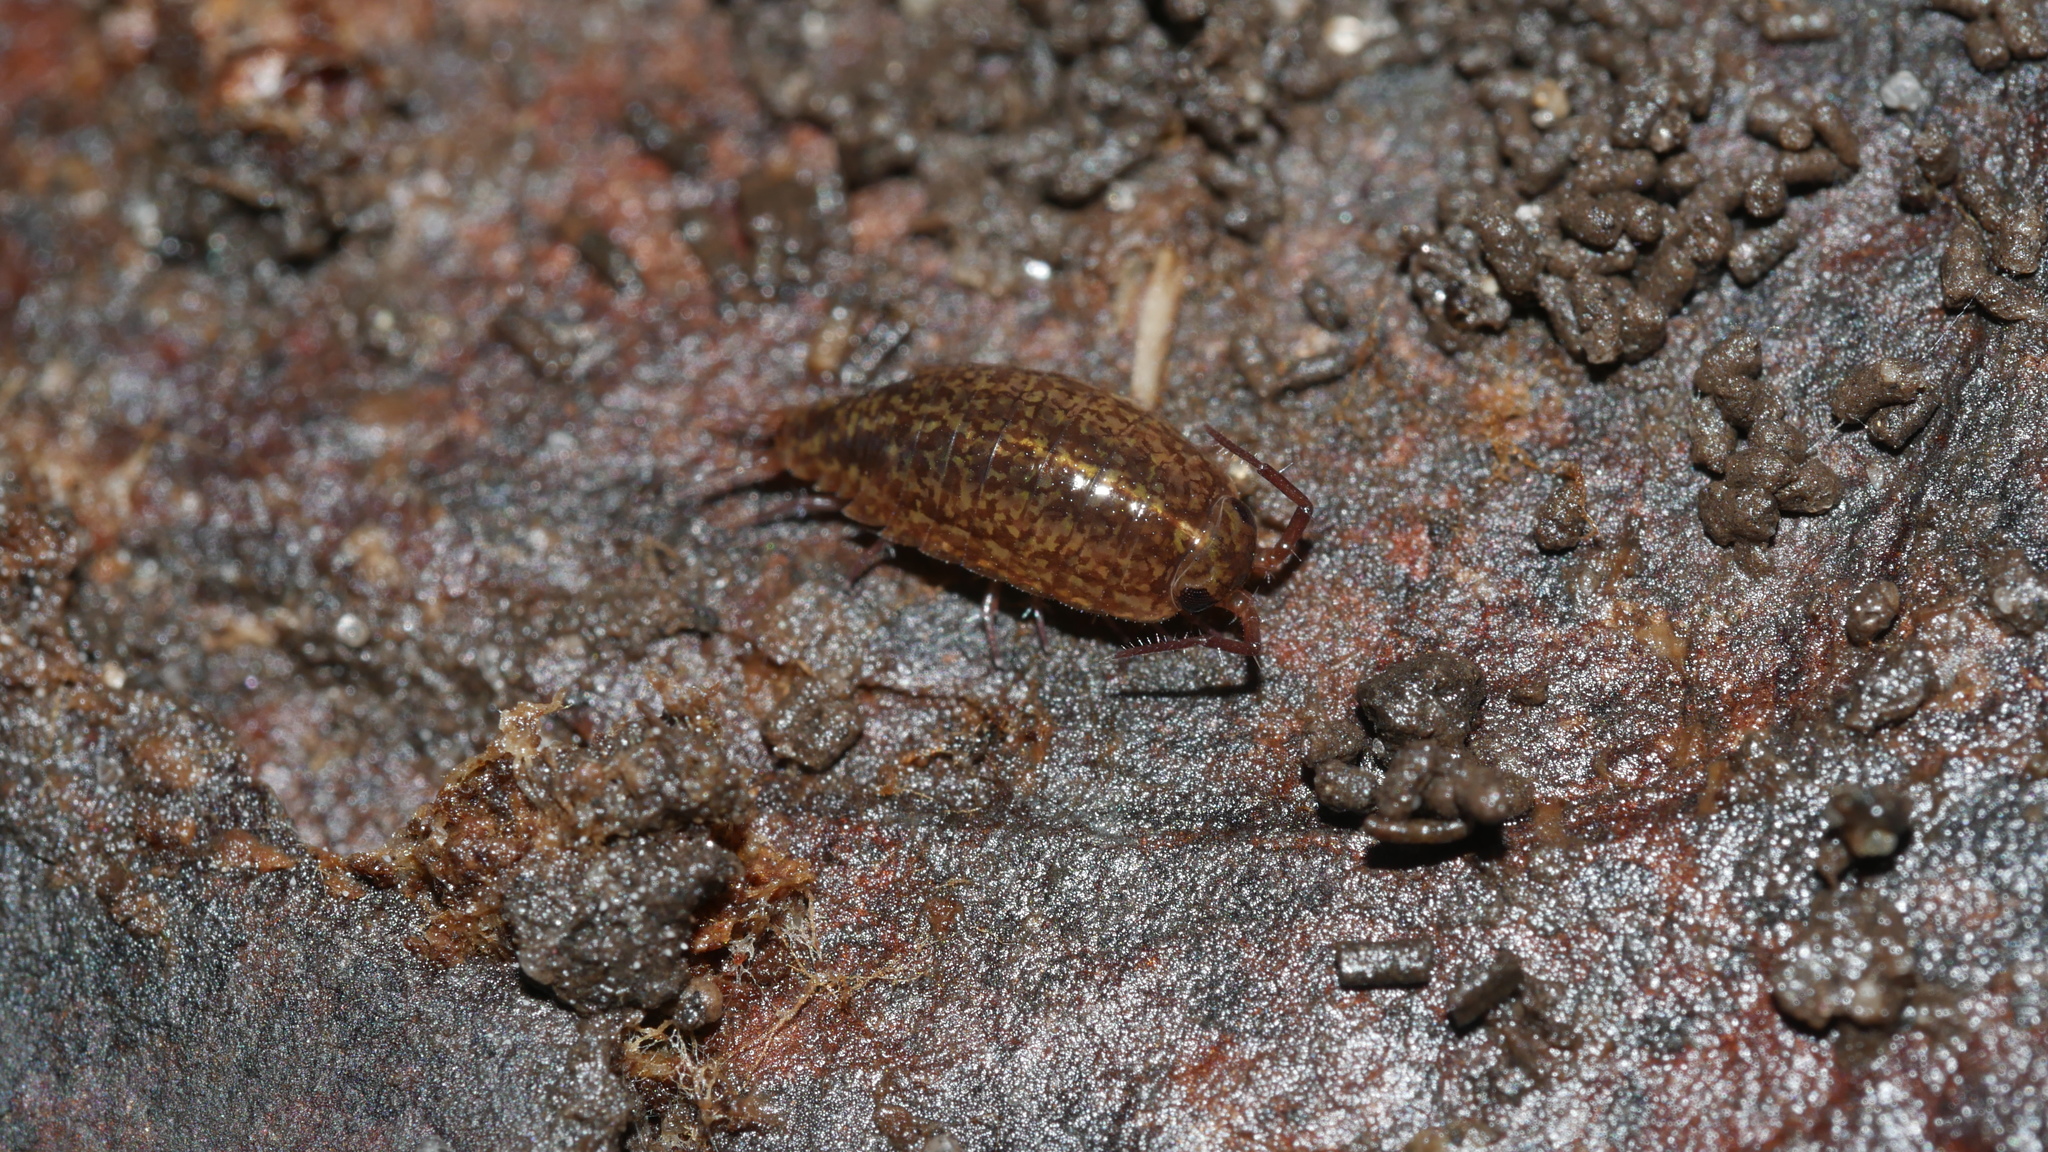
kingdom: Animalia
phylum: Arthropoda
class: Malacostraca
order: Isopoda
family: Ligiidae
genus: Ligidium
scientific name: Ligidium elrodii
